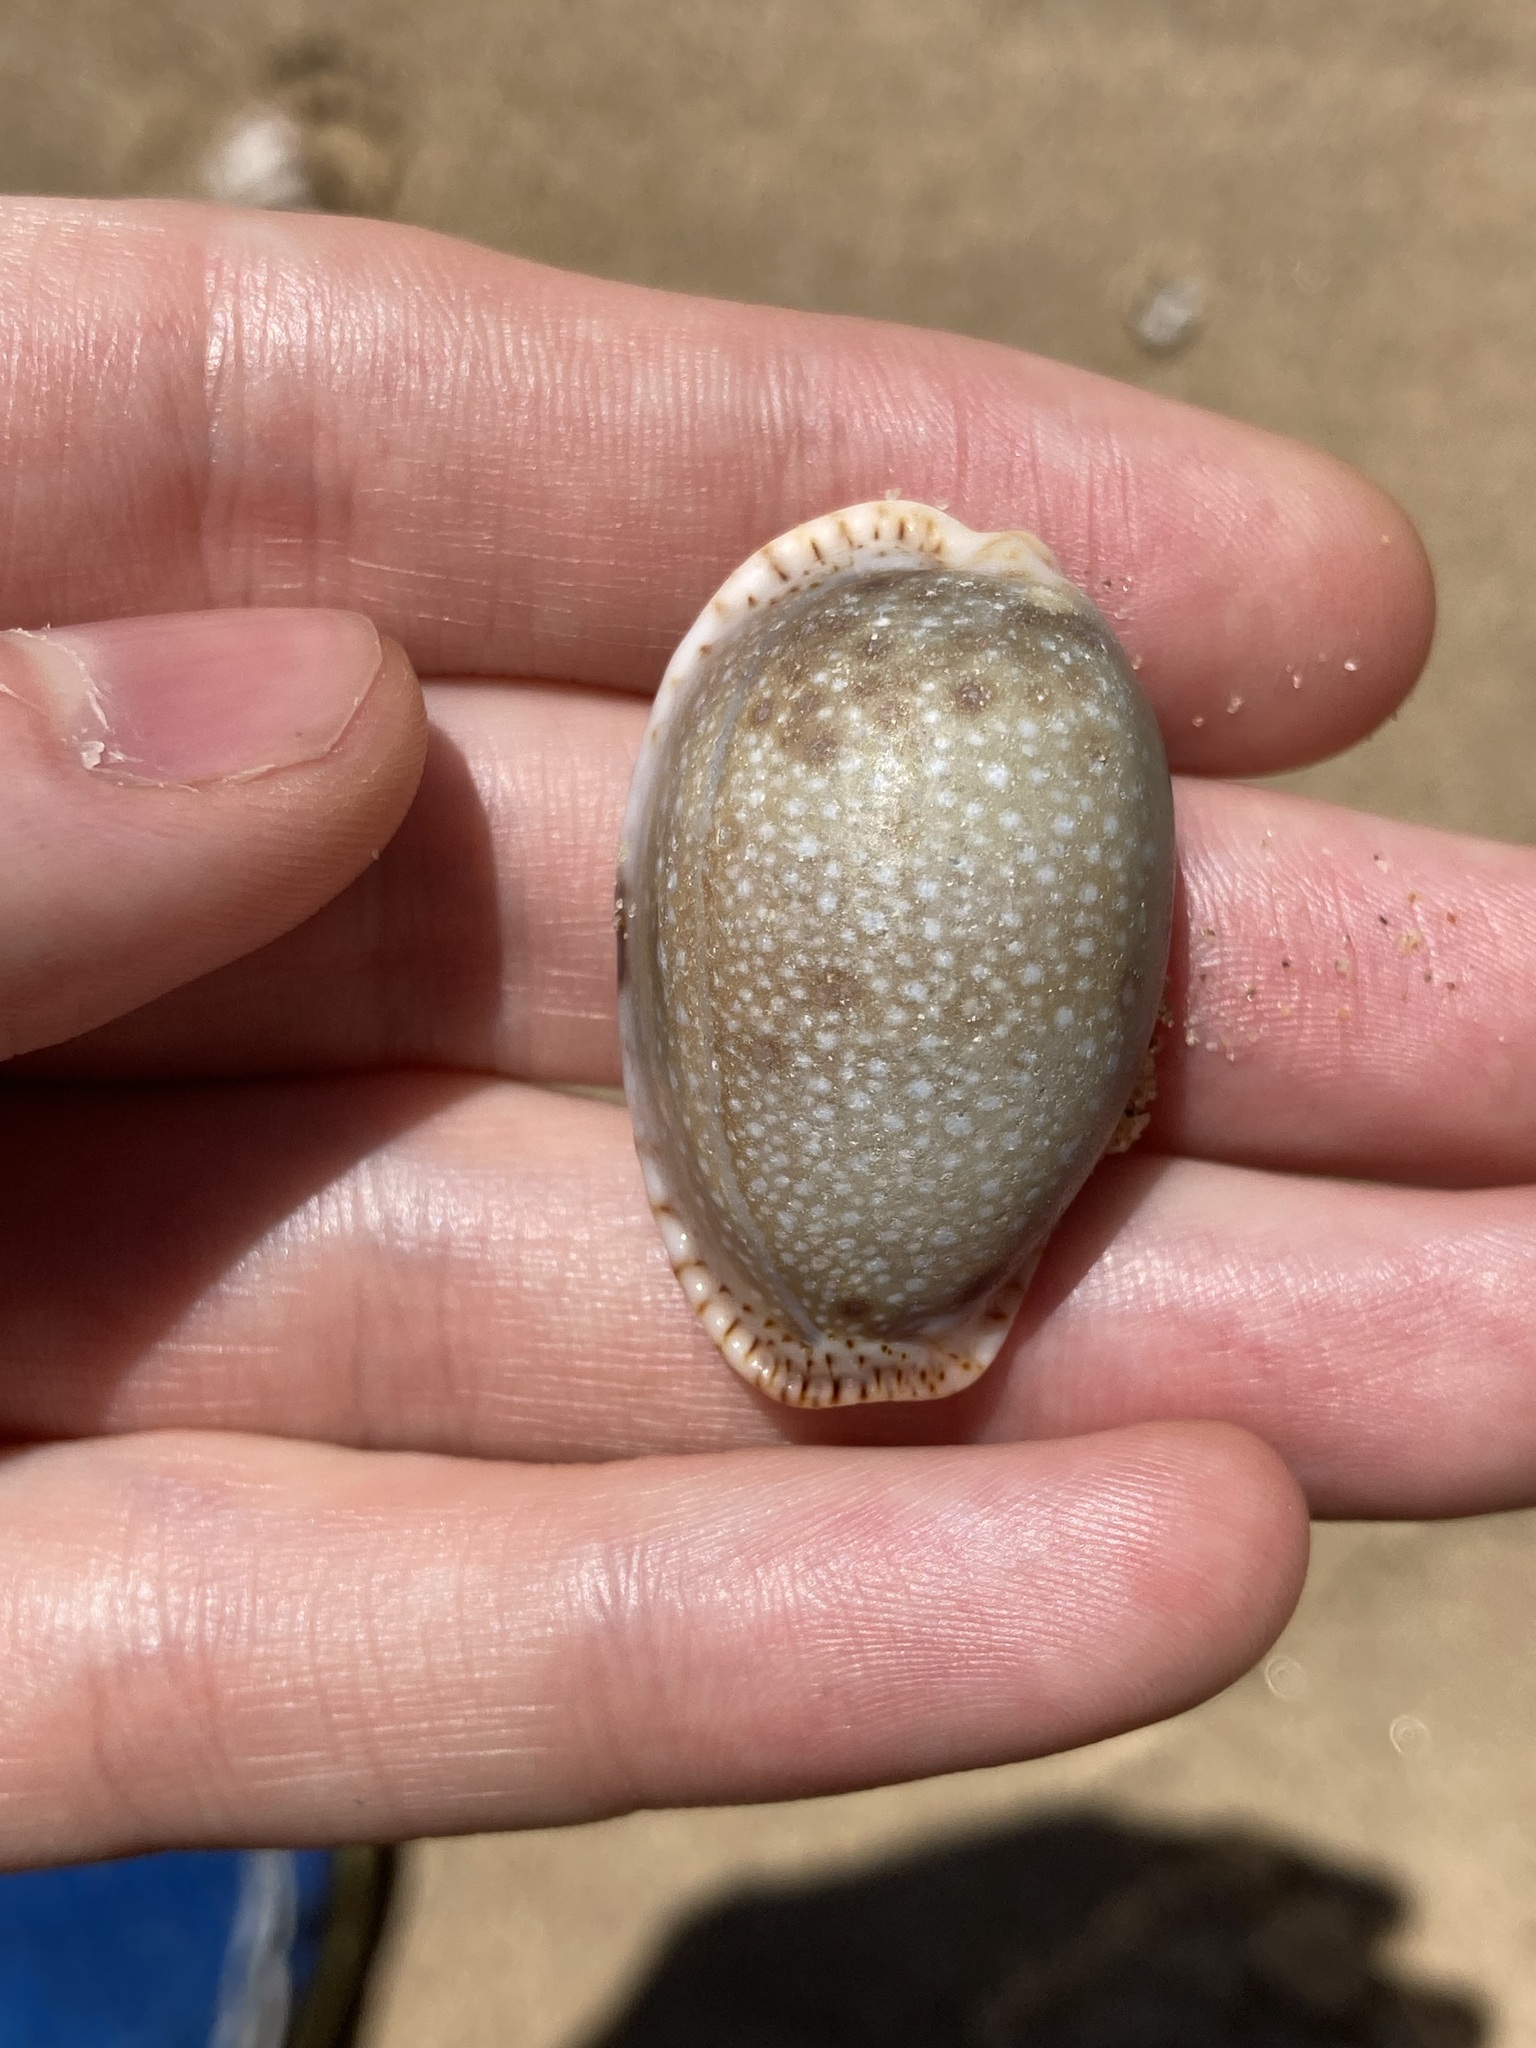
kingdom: Animalia
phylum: Mollusca
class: Gastropoda
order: Littorinimorpha
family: Cypraeidae
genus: Naria
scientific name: Naria erosa
